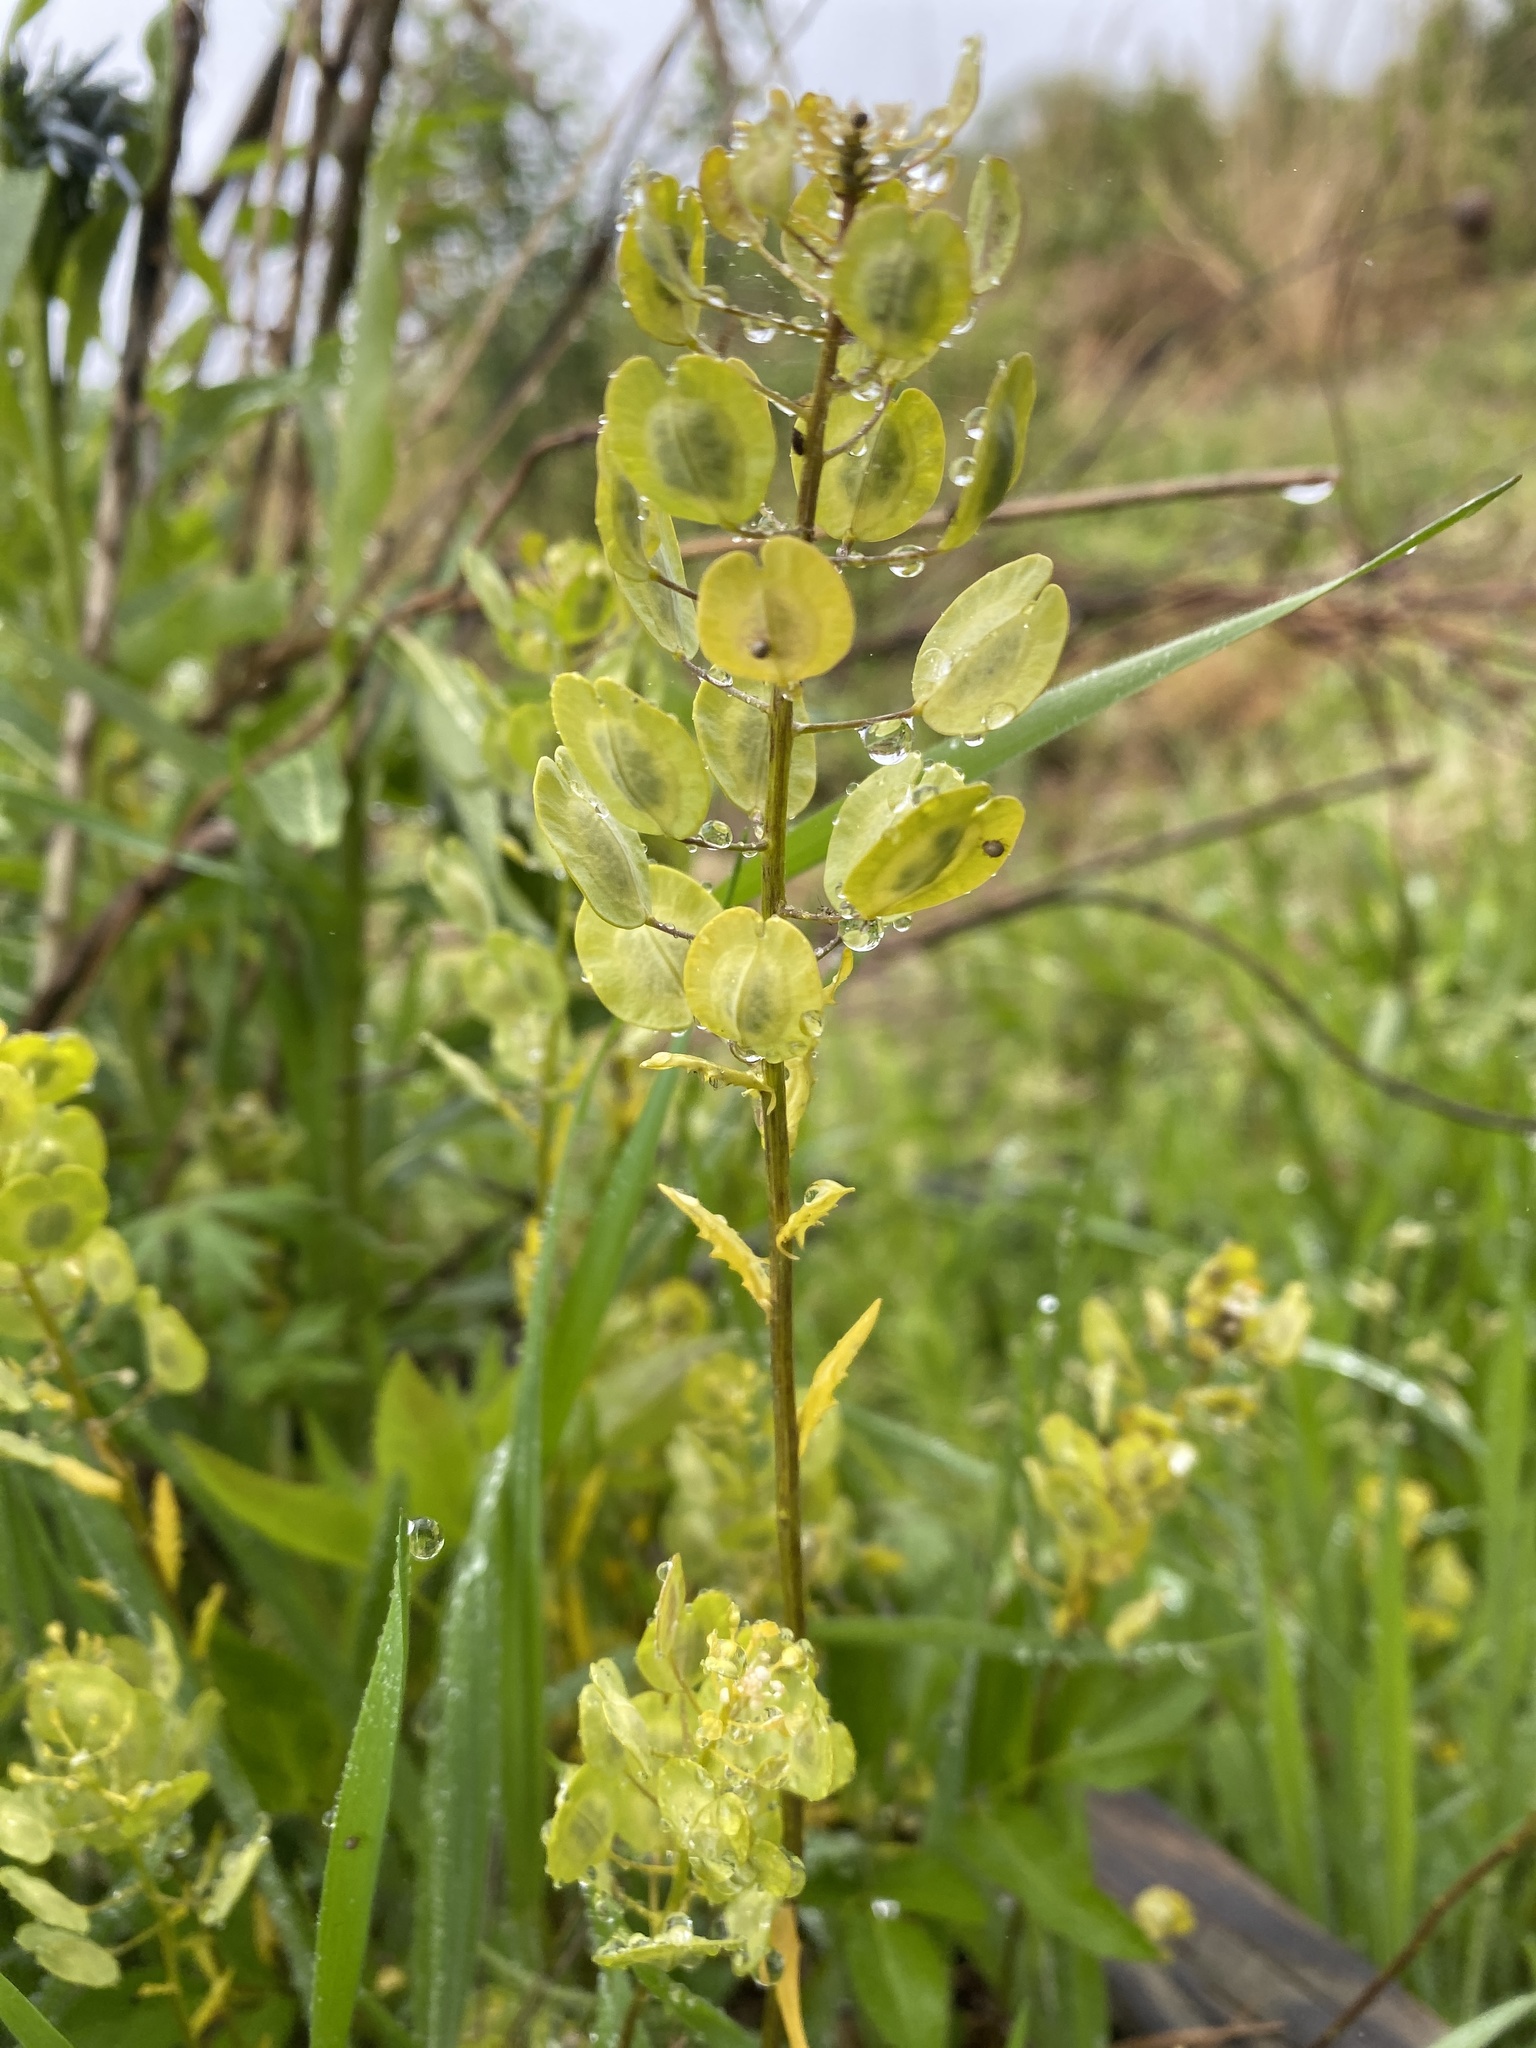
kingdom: Plantae
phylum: Tracheophyta
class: Magnoliopsida
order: Brassicales
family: Brassicaceae
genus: Thlaspi
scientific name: Thlaspi arvense
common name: Field pennycress
